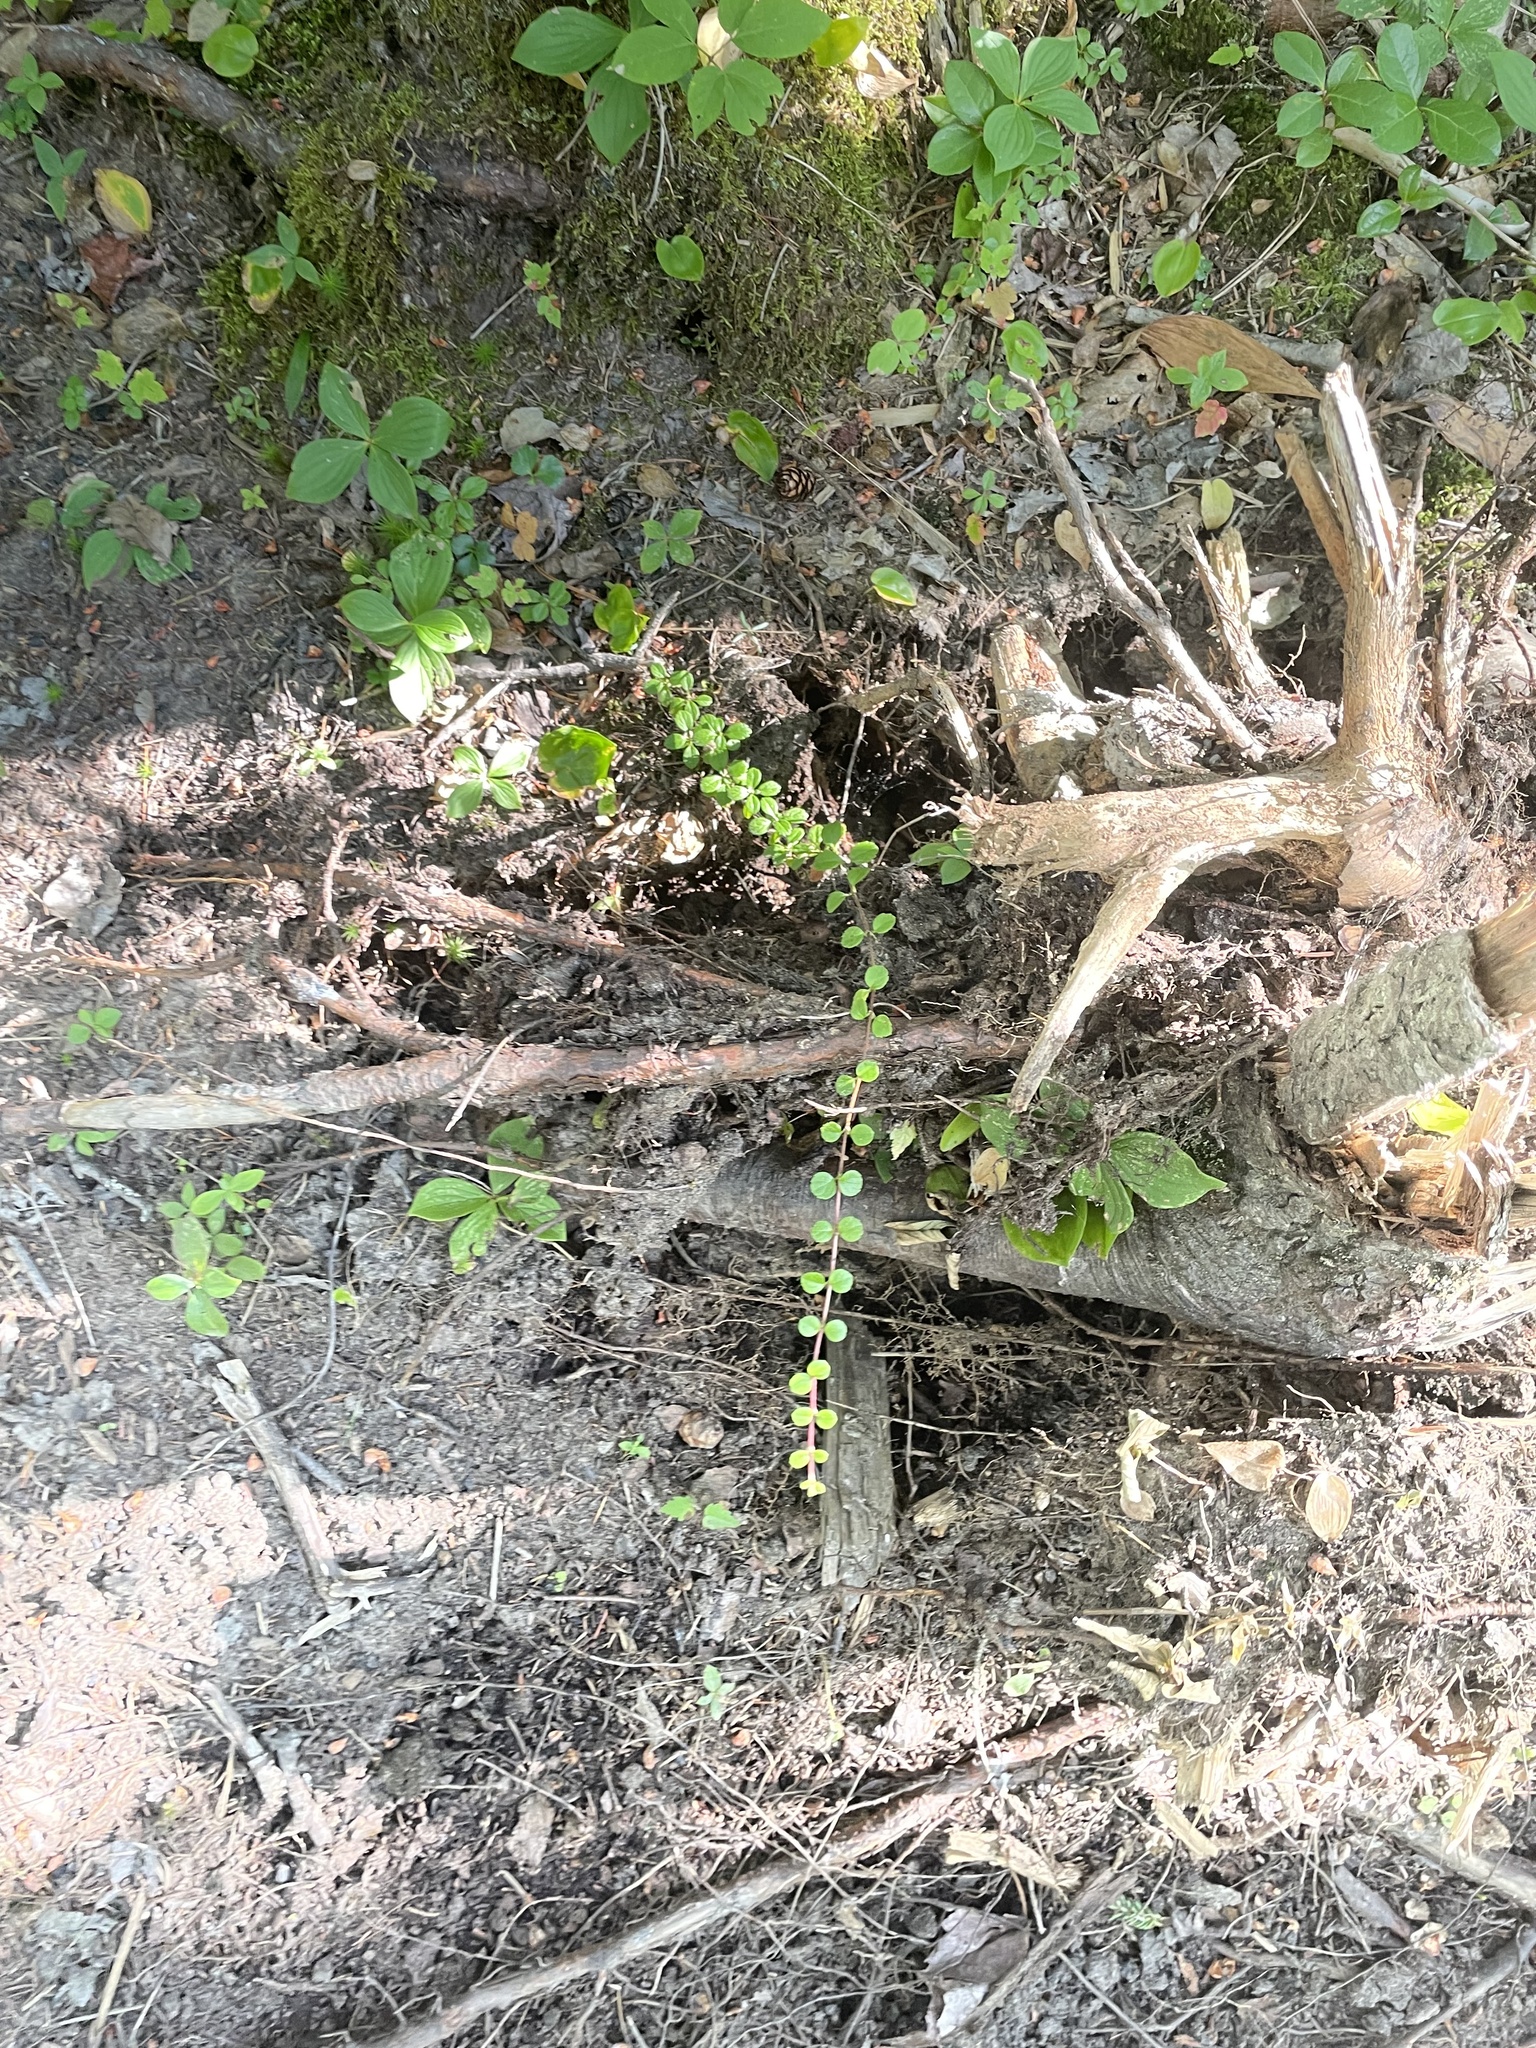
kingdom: Plantae
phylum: Tracheophyta
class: Magnoliopsida
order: Dipsacales
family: Caprifoliaceae
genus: Linnaea
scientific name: Linnaea borealis
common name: Twinflower
